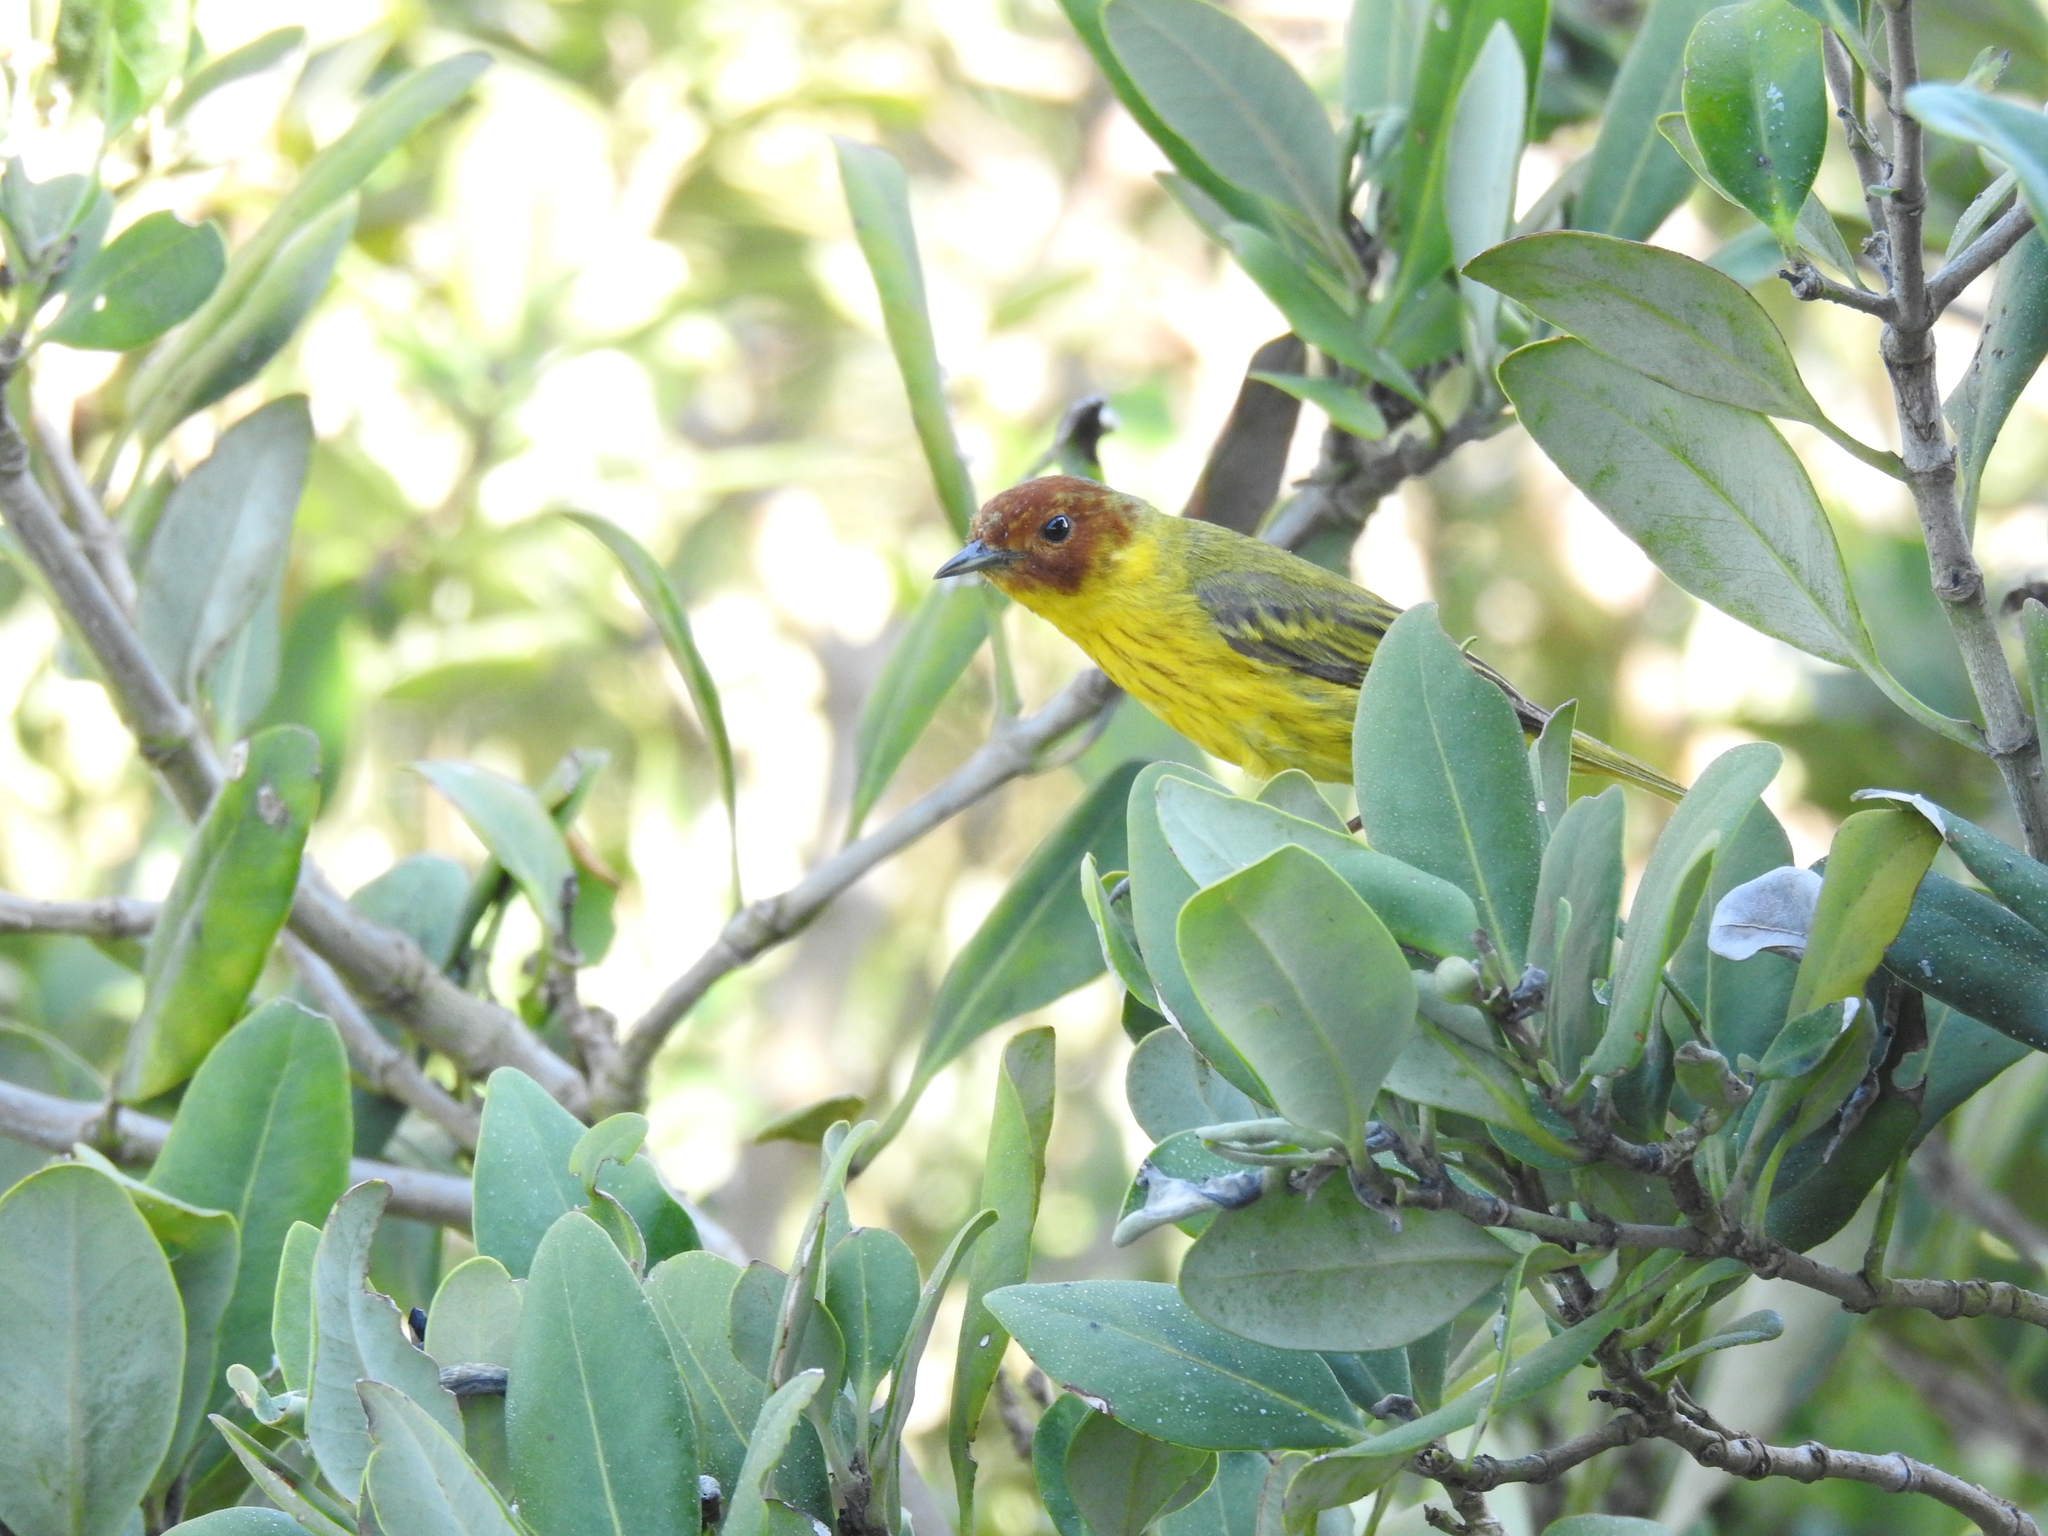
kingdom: Animalia
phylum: Chordata
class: Aves
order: Passeriformes
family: Parulidae
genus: Setophaga
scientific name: Setophaga petechia
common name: Yellow warbler
